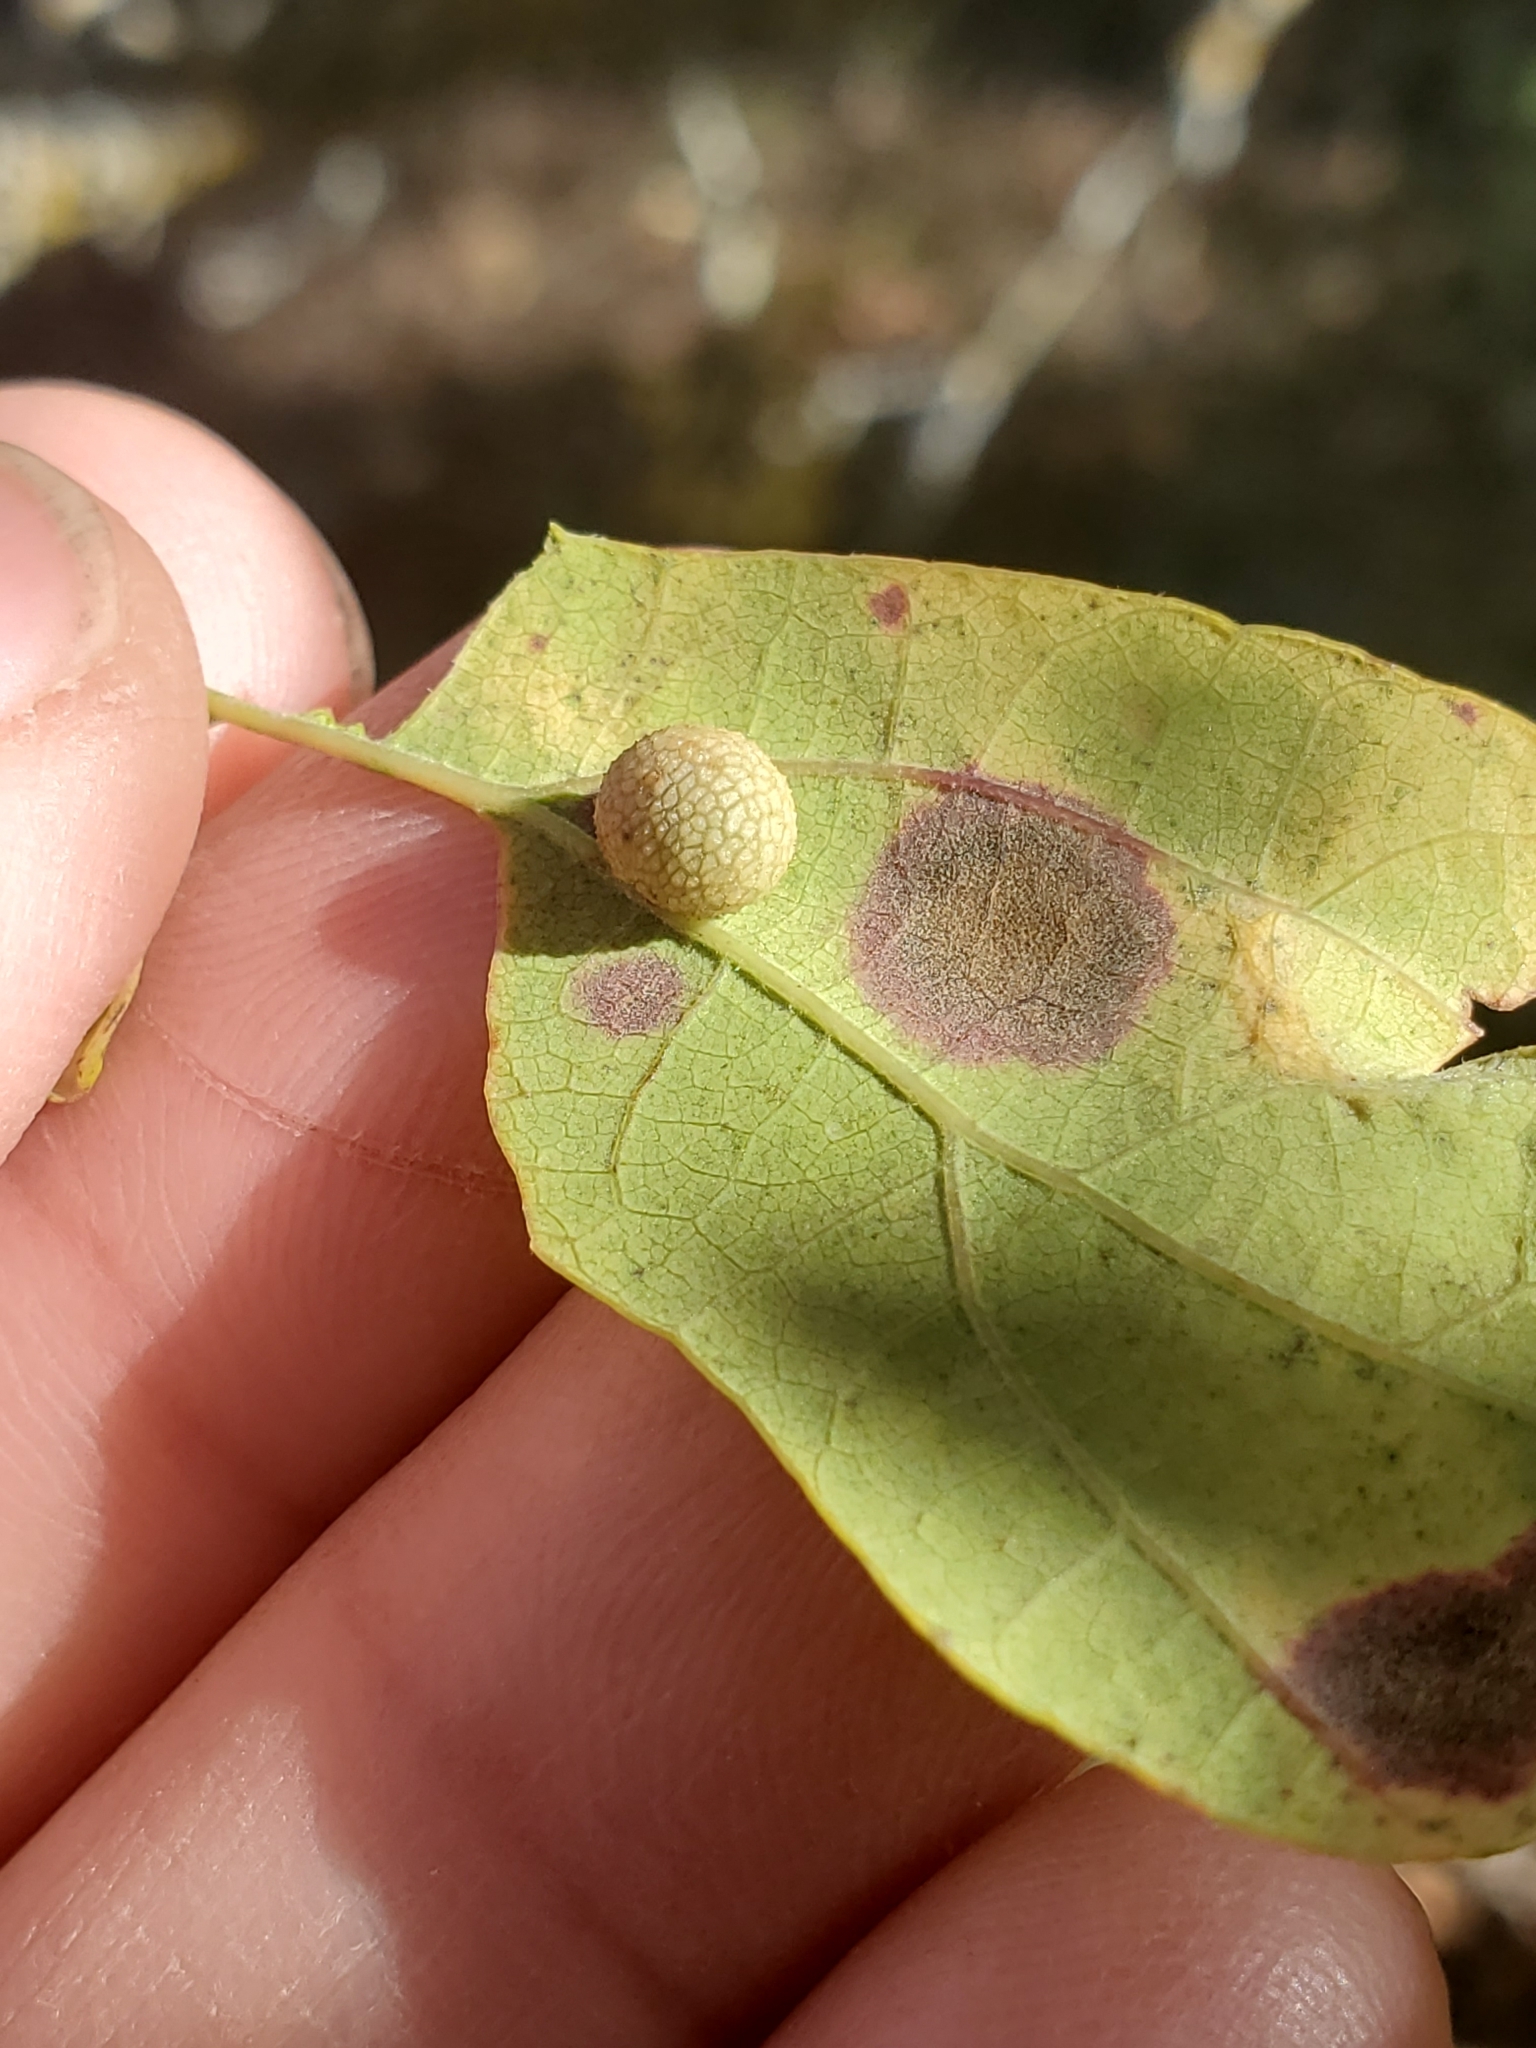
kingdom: Animalia
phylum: Arthropoda
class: Insecta
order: Hymenoptera
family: Cynipidae
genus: Acraspis
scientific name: Acraspis quercushirta
